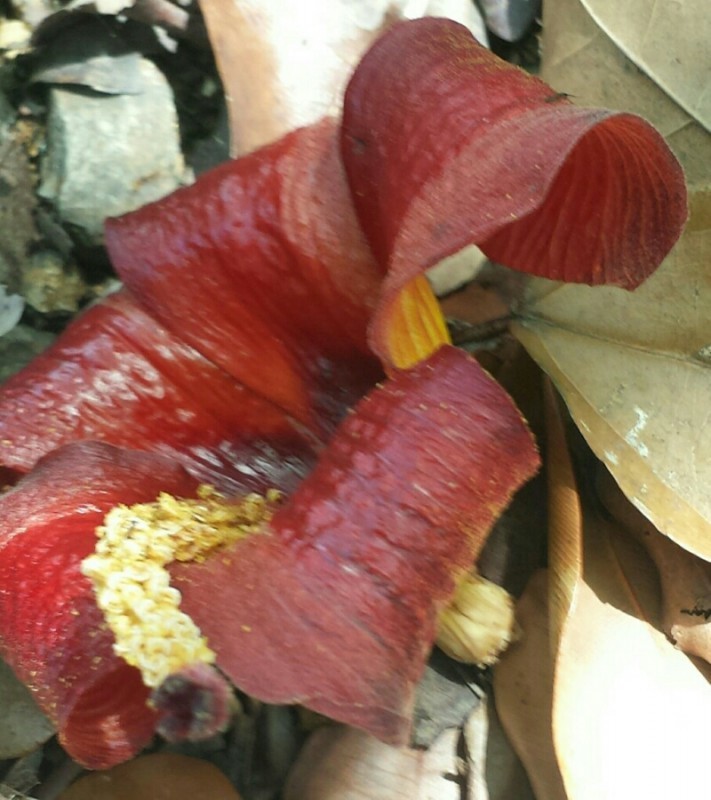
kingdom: Plantae
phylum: Tracheophyta
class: Magnoliopsida
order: Malvales
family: Malvaceae
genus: Talipariti
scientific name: Talipariti
